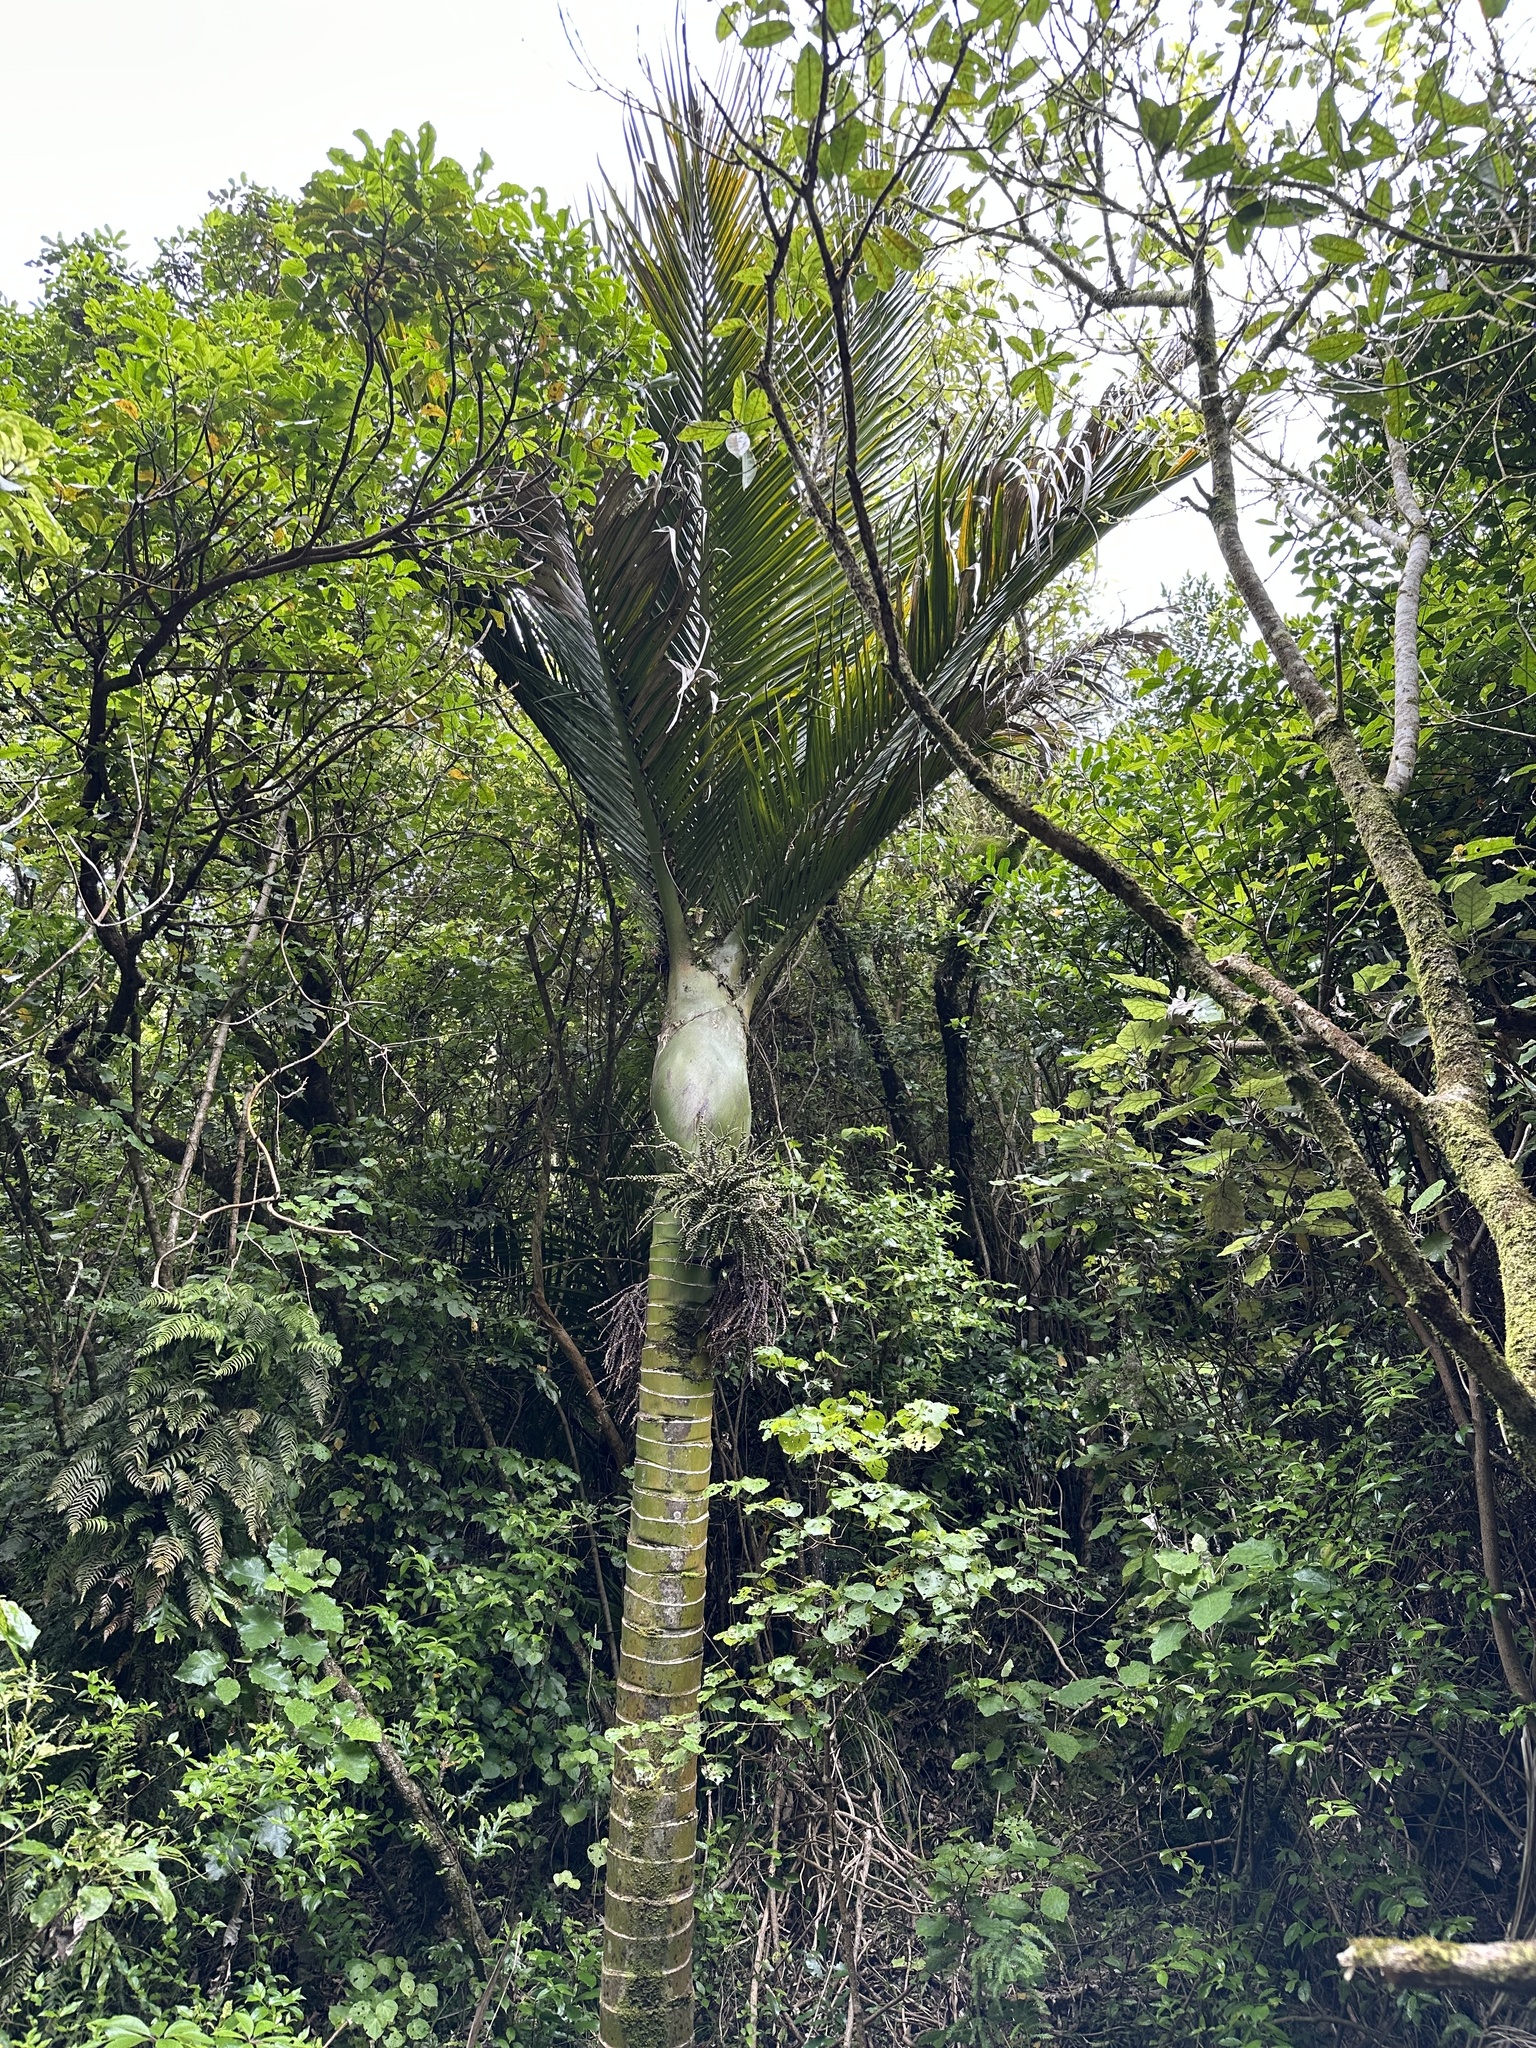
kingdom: Plantae
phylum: Tracheophyta
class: Liliopsida
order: Arecales
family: Arecaceae
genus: Rhopalostylis
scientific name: Rhopalostylis sapida
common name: Feather-duster palm
